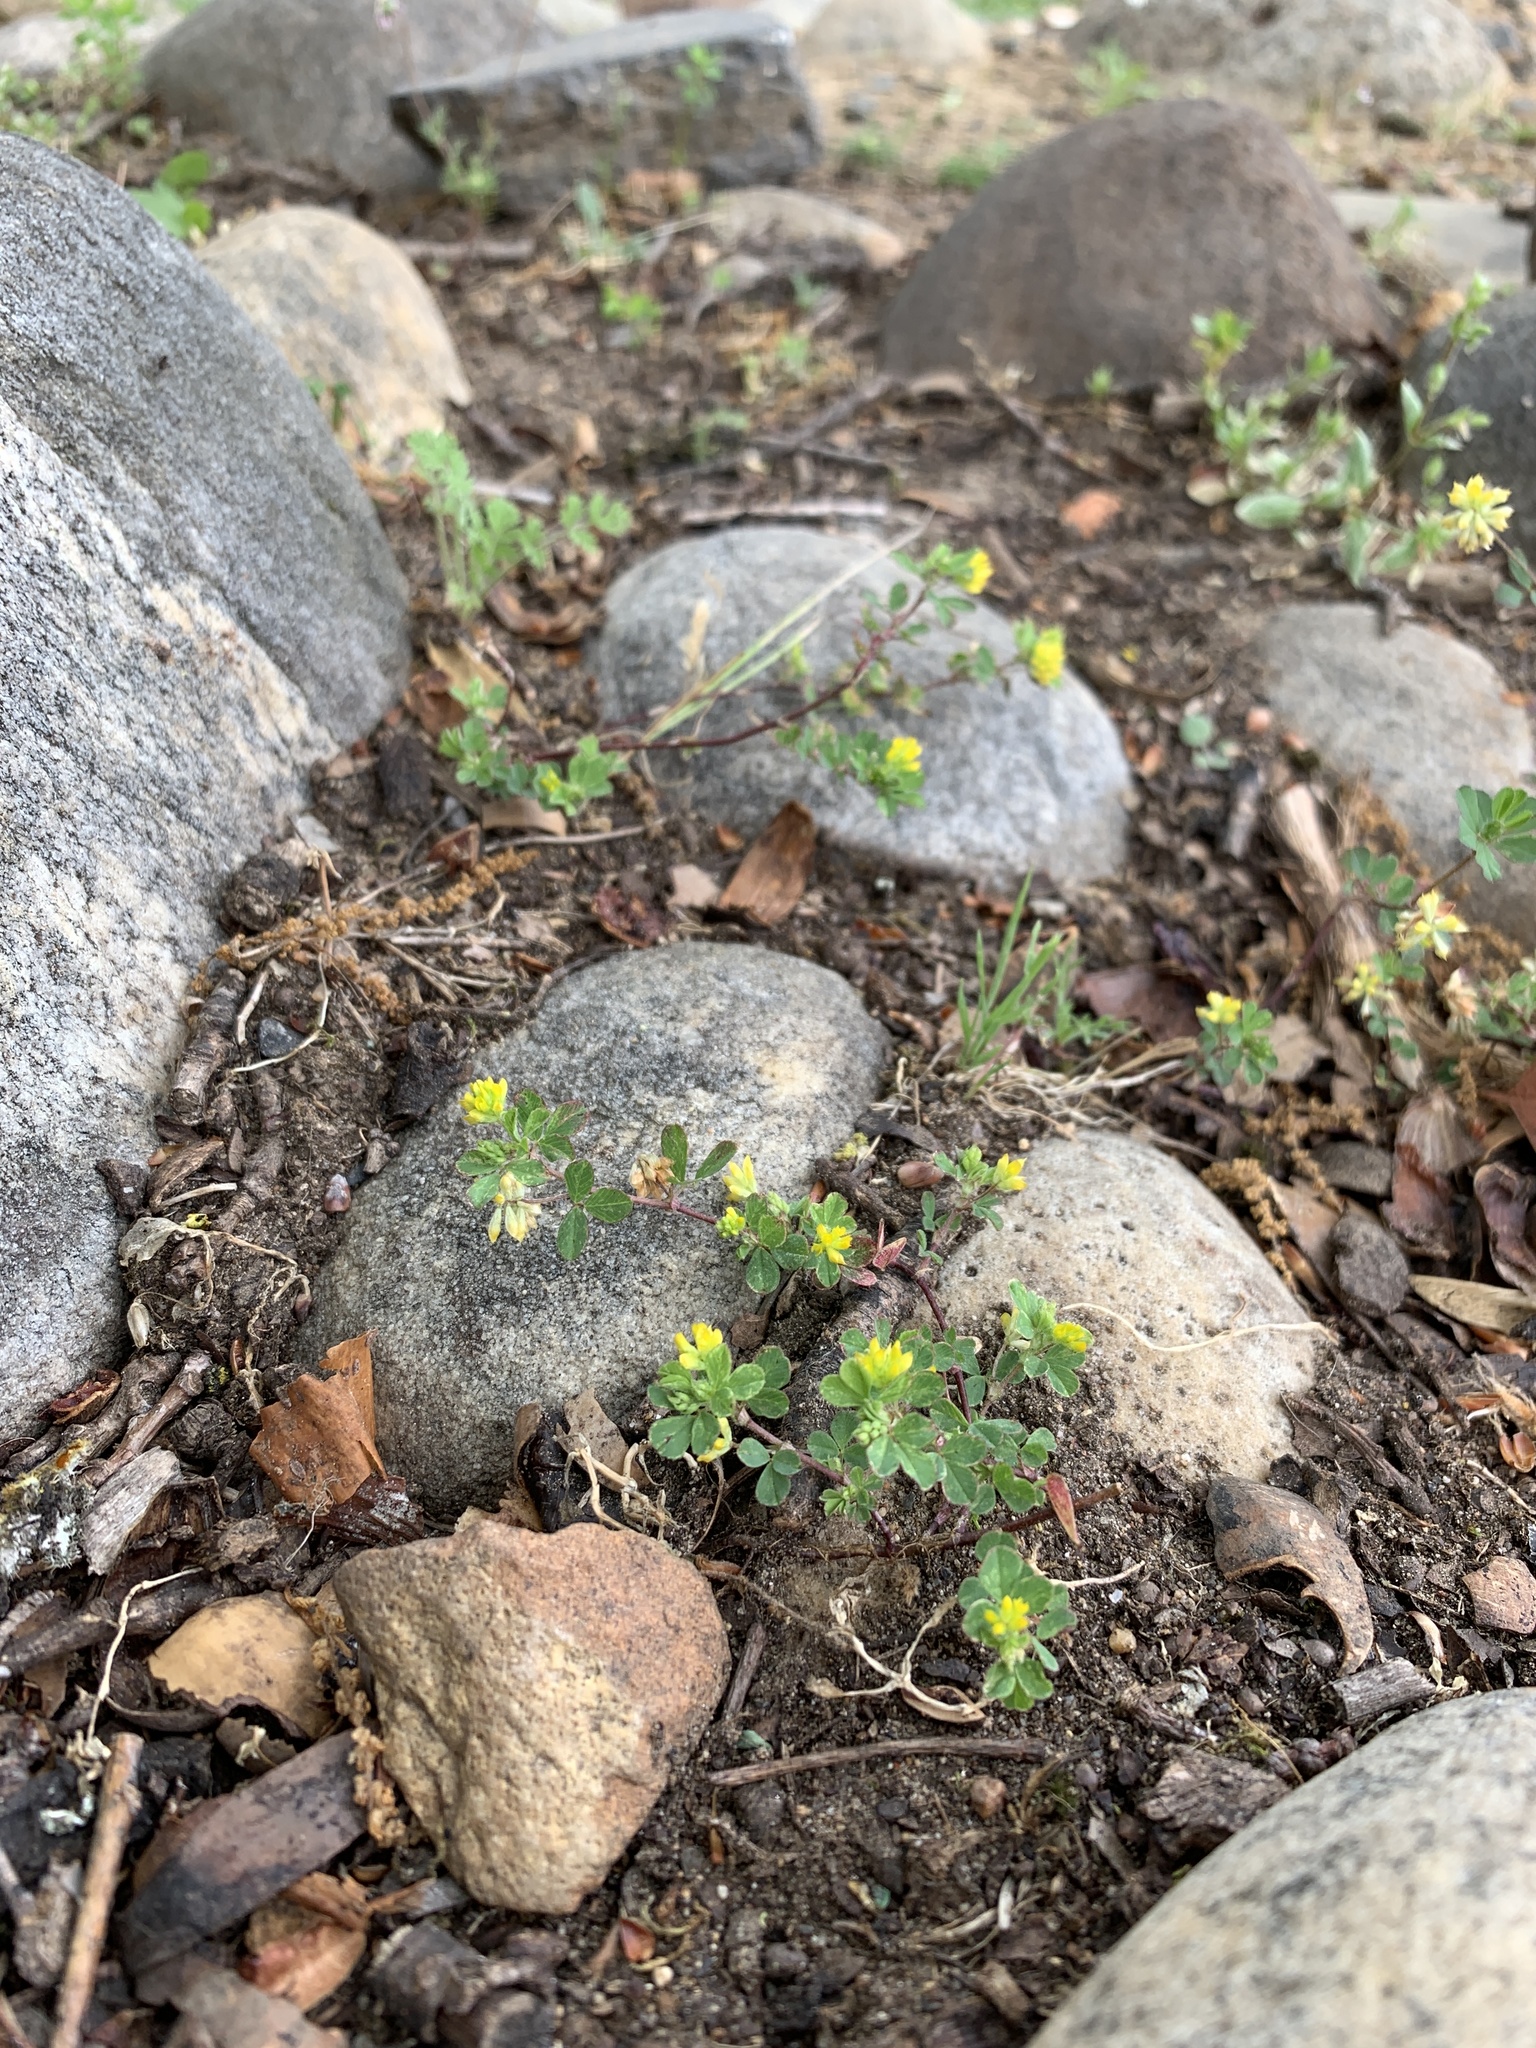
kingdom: Plantae
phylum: Tracheophyta
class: Magnoliopsida
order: Fabales
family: Fabaceae
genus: Trifolium
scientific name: Trifolium dubium
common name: Suckling clover
